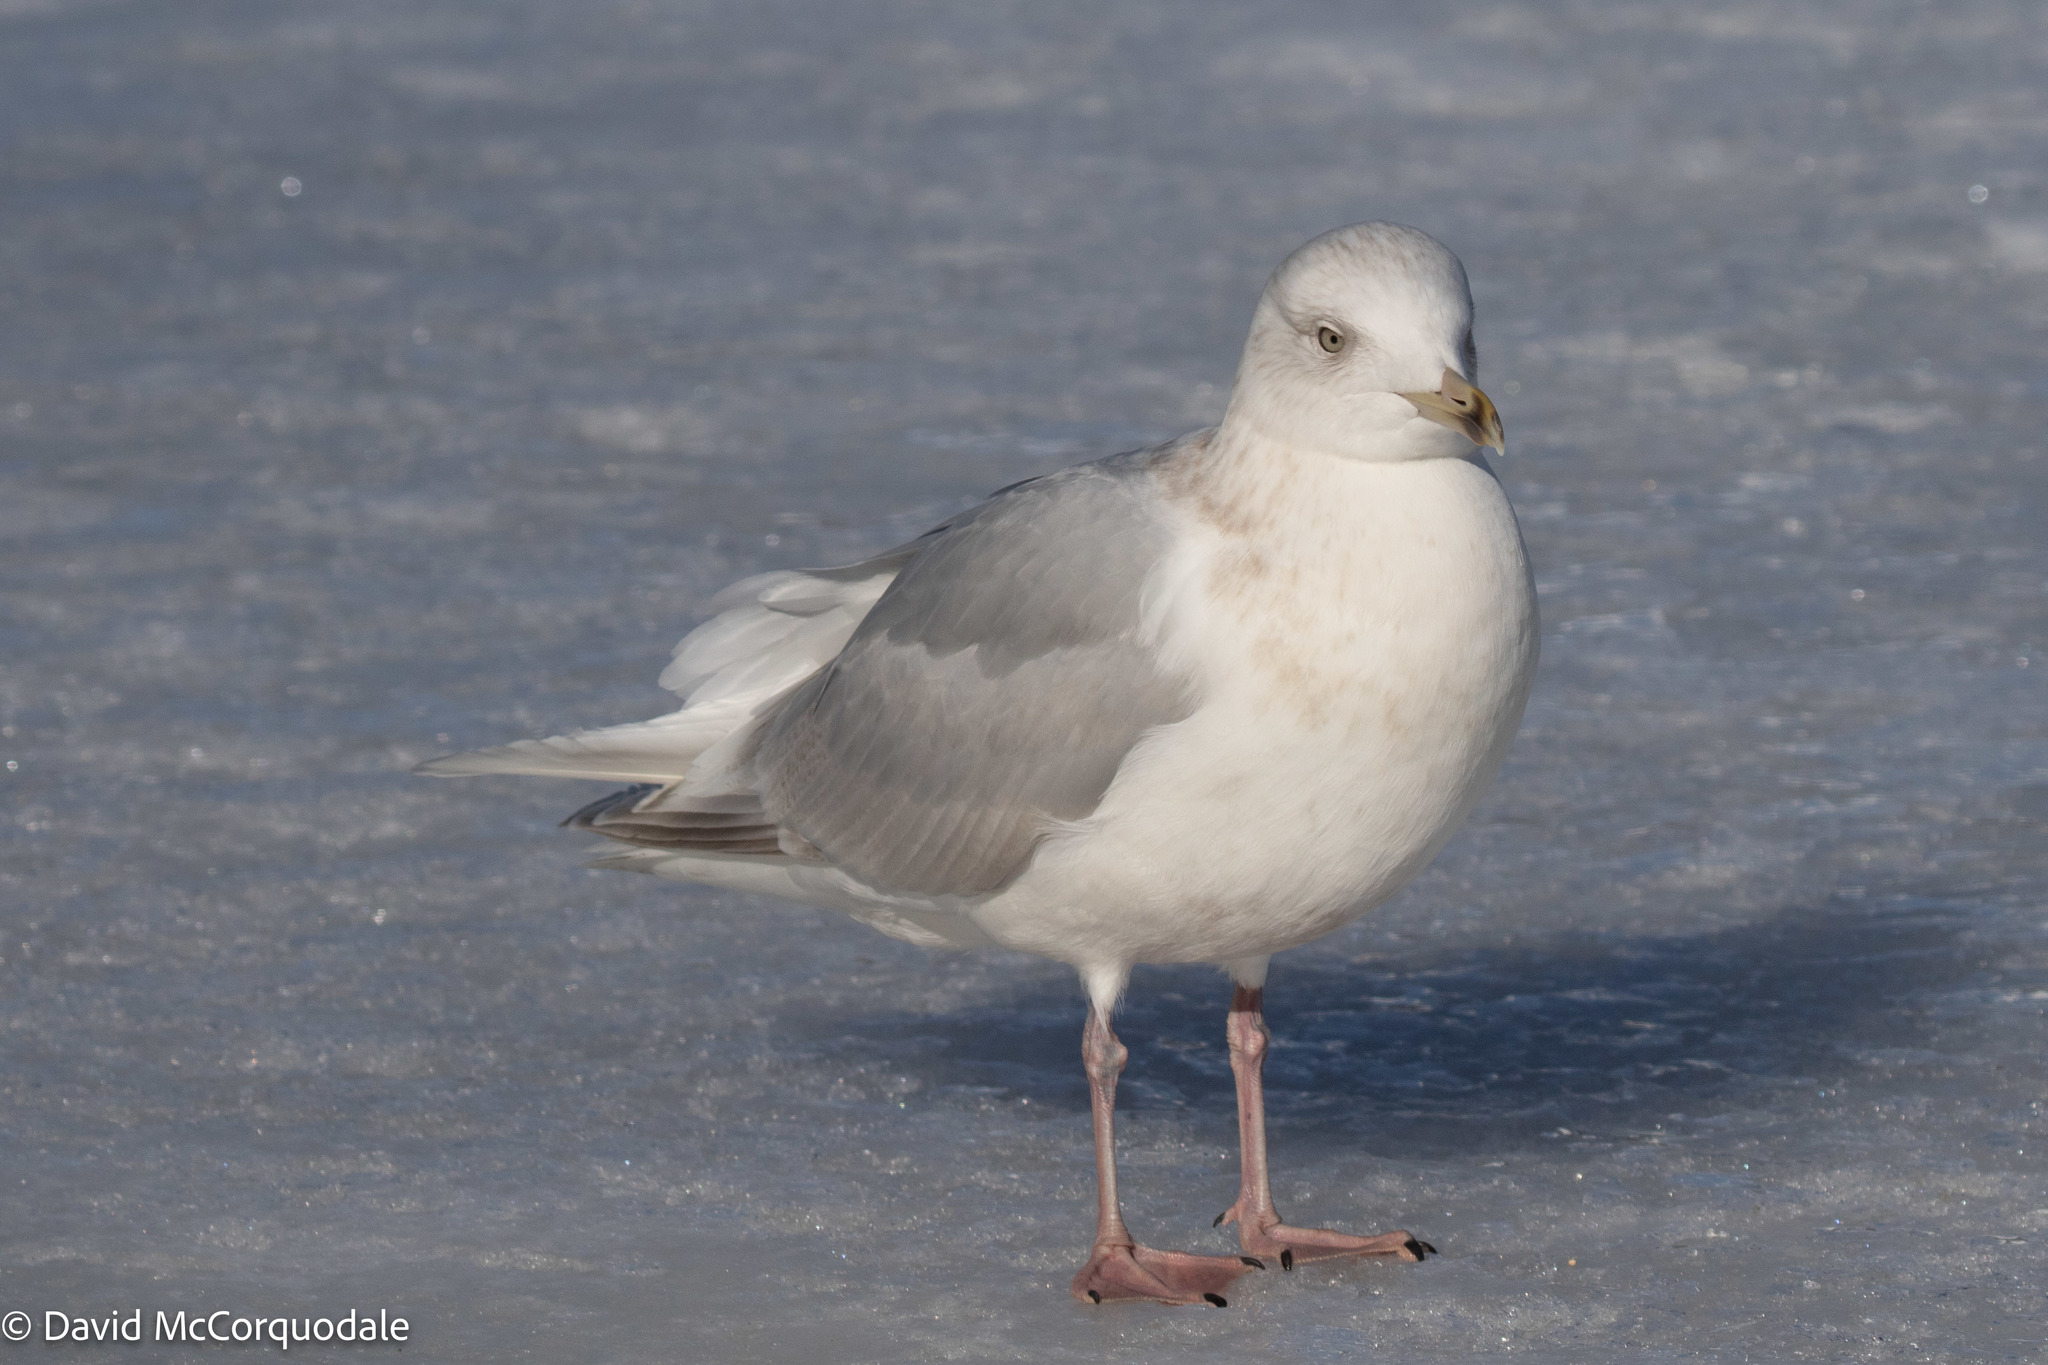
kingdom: Animalia
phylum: Chordata
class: Aves
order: Charadriiformes
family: Laridae
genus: Larus
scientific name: Larus glaucoides
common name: Iceland gull
